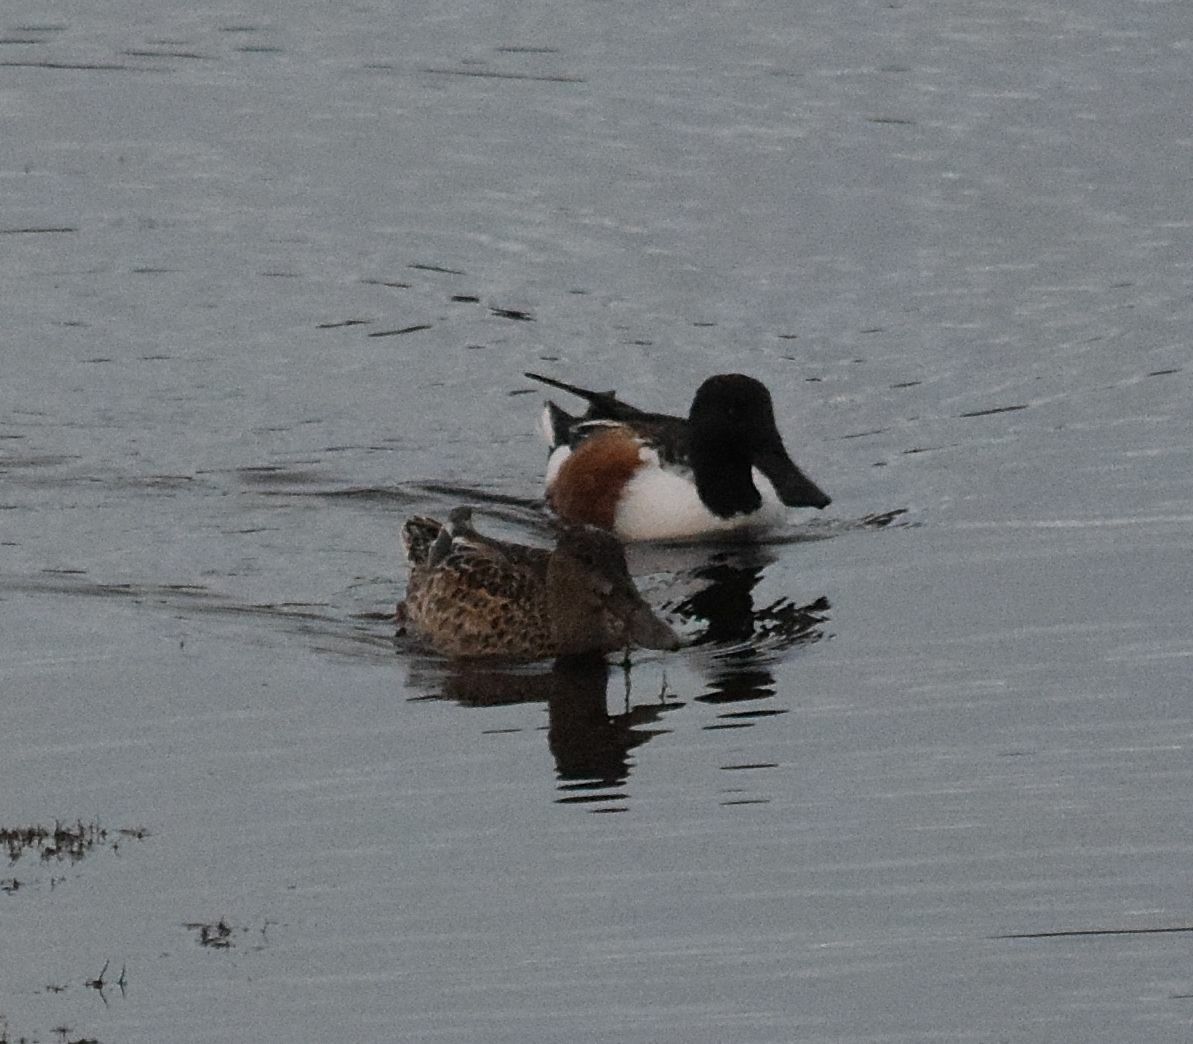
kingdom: Animalia
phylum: Chordata
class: Aves
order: Anseriformes
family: Anatidae
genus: Spatula
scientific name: Spatula clypeata
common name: Northern shoveler
